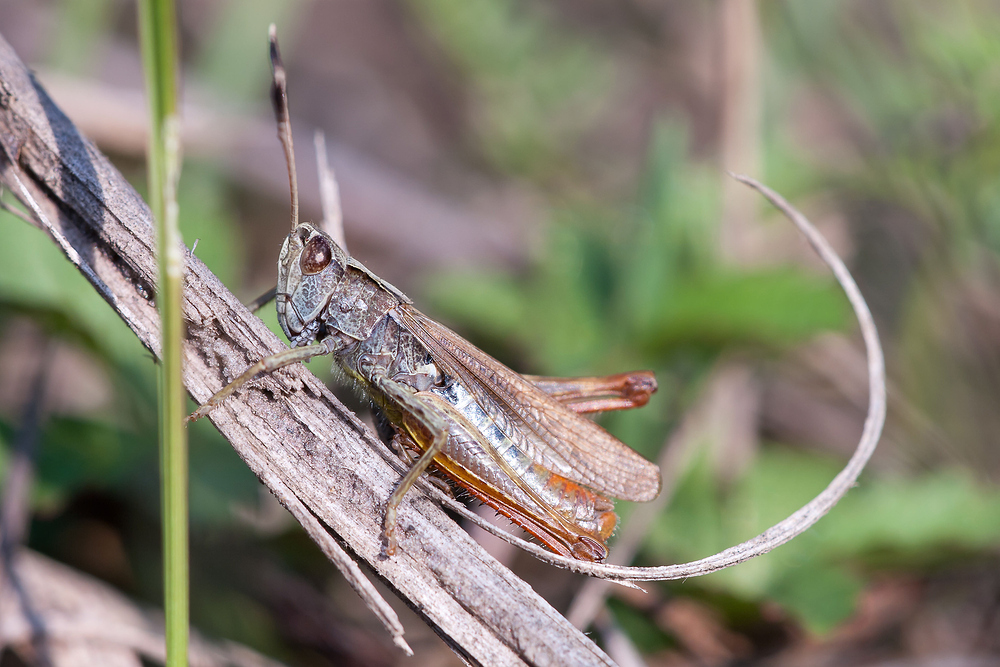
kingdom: Animalia
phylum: Arthropoda
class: Insecta
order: Orthoptera
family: Acrididae
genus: Gomphocerippus
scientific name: Gomphocerippus rufus
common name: Rufous grasshopper
